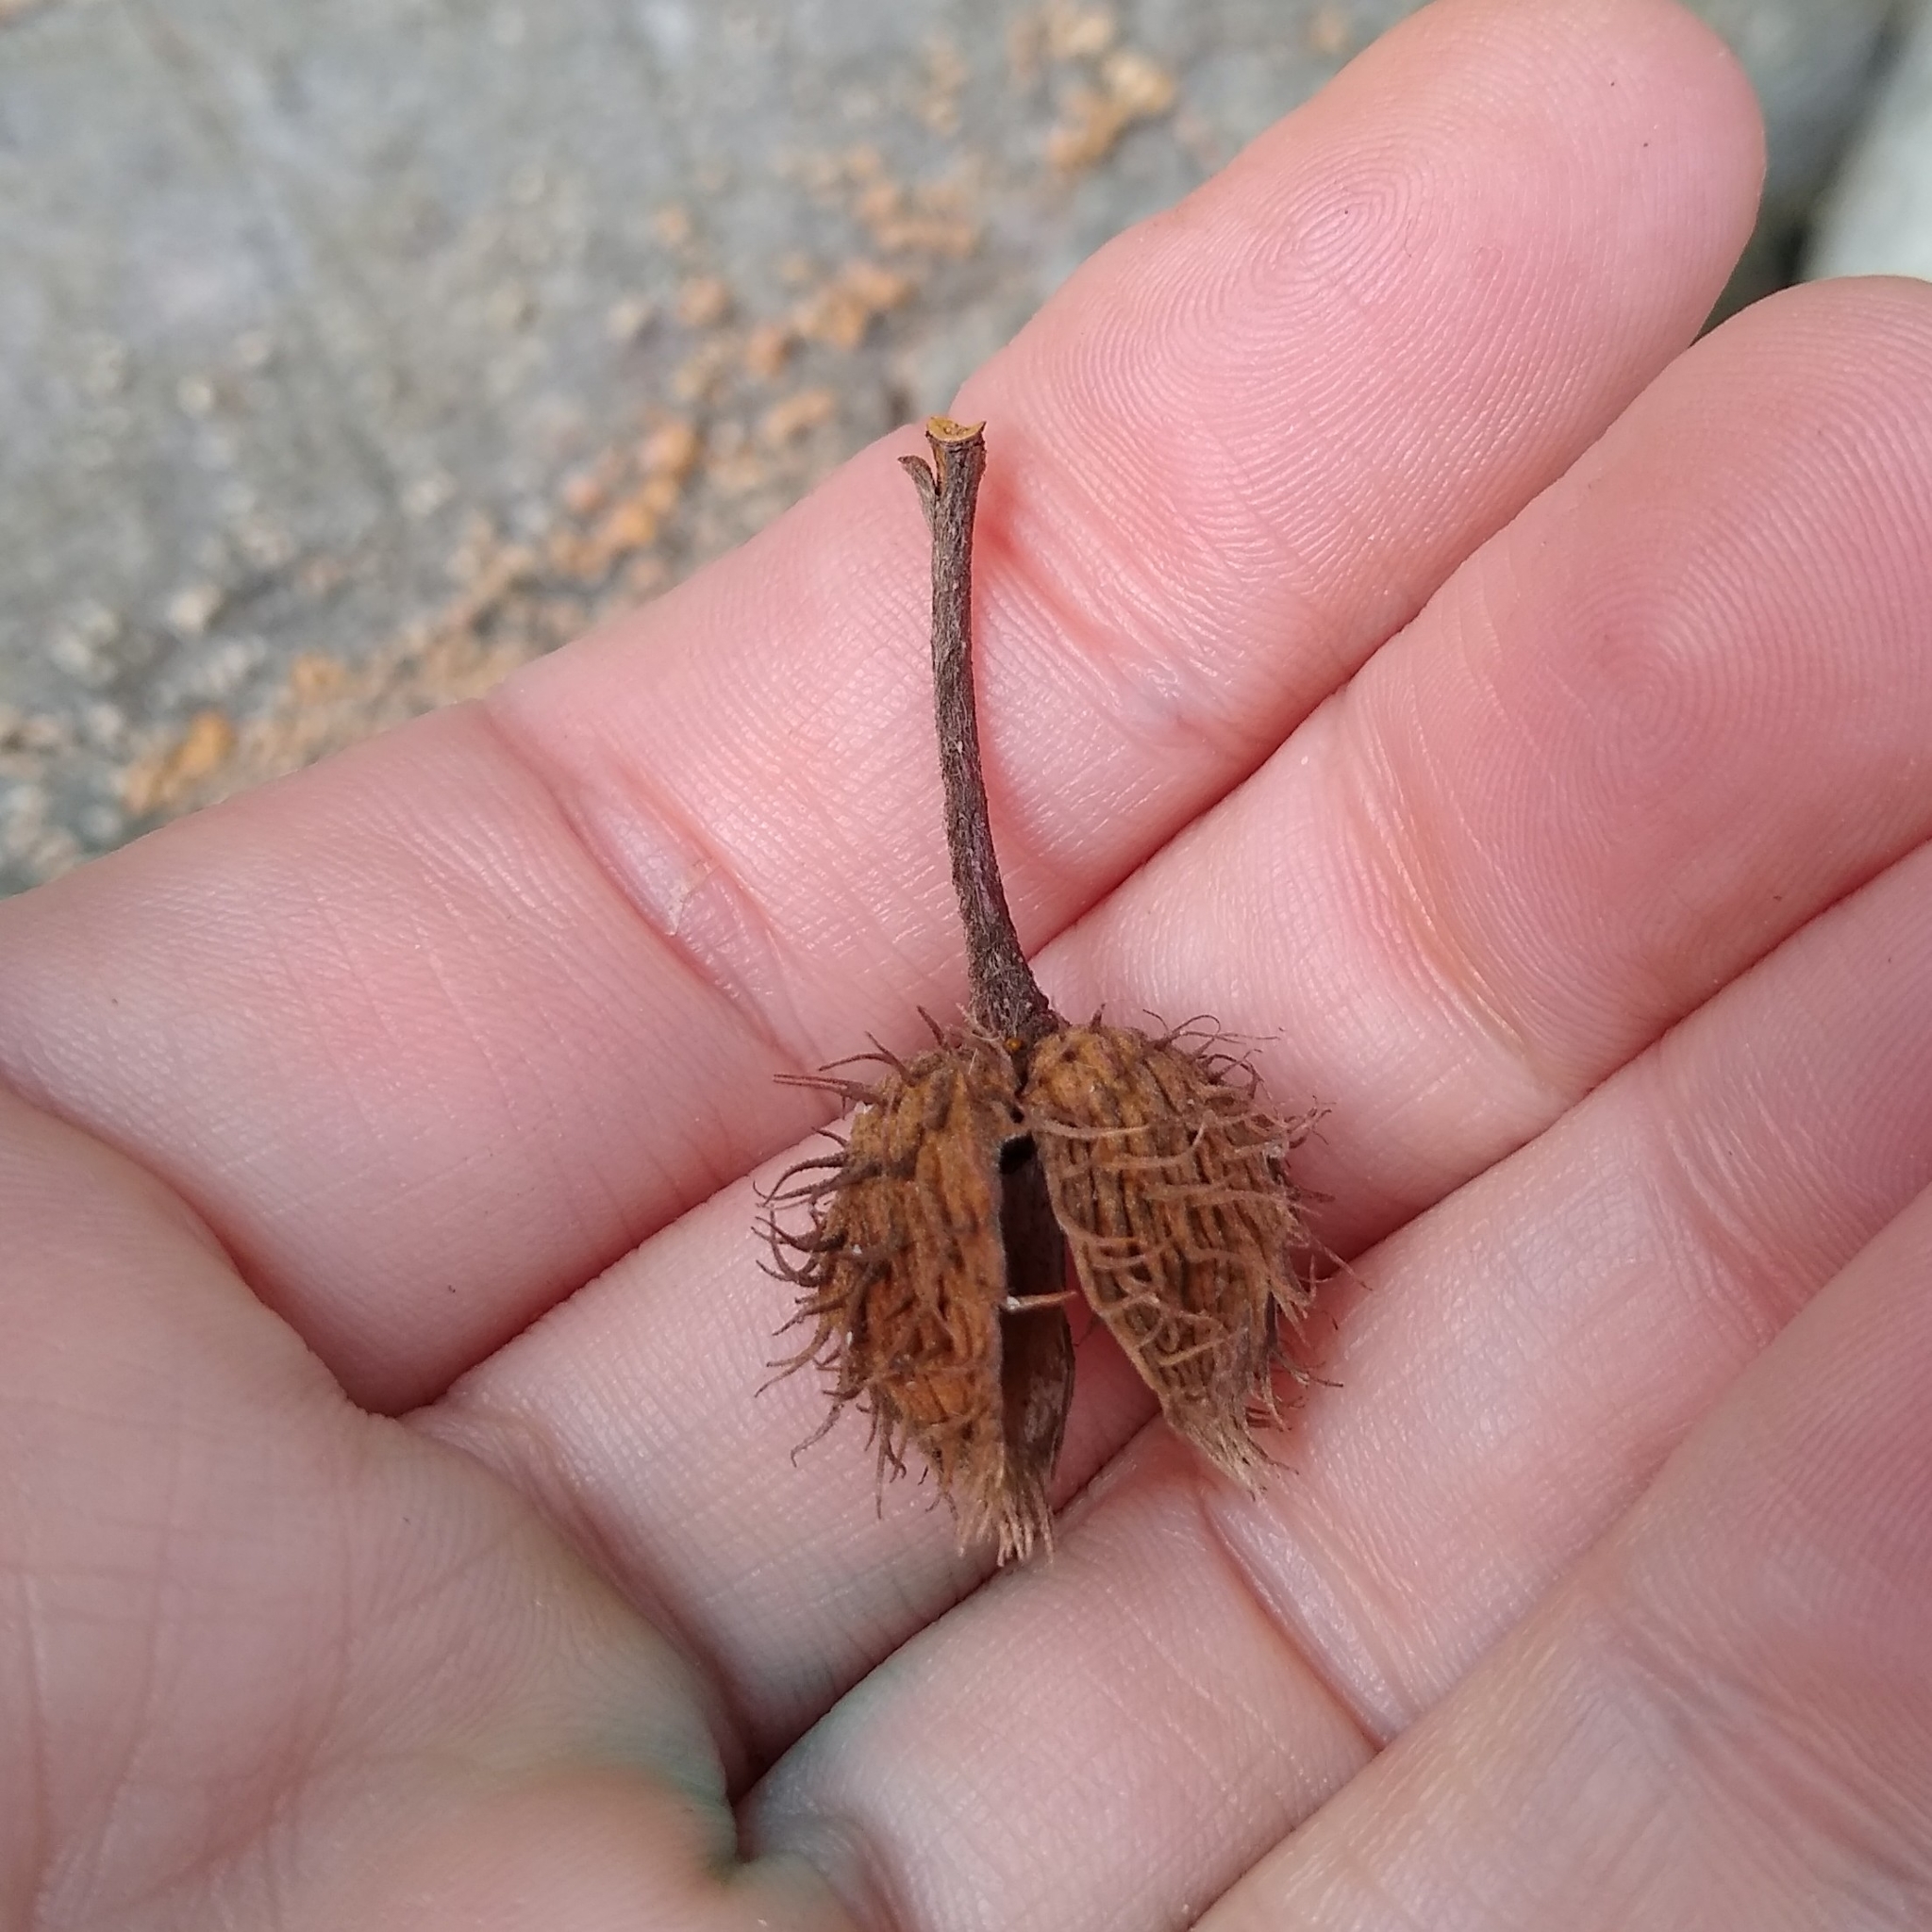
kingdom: Plantae
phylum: Tracheophyta
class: Magnoliopsida
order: Fagales
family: Fagaceae
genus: Fagus
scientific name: Fagus grandifolia
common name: American beech
